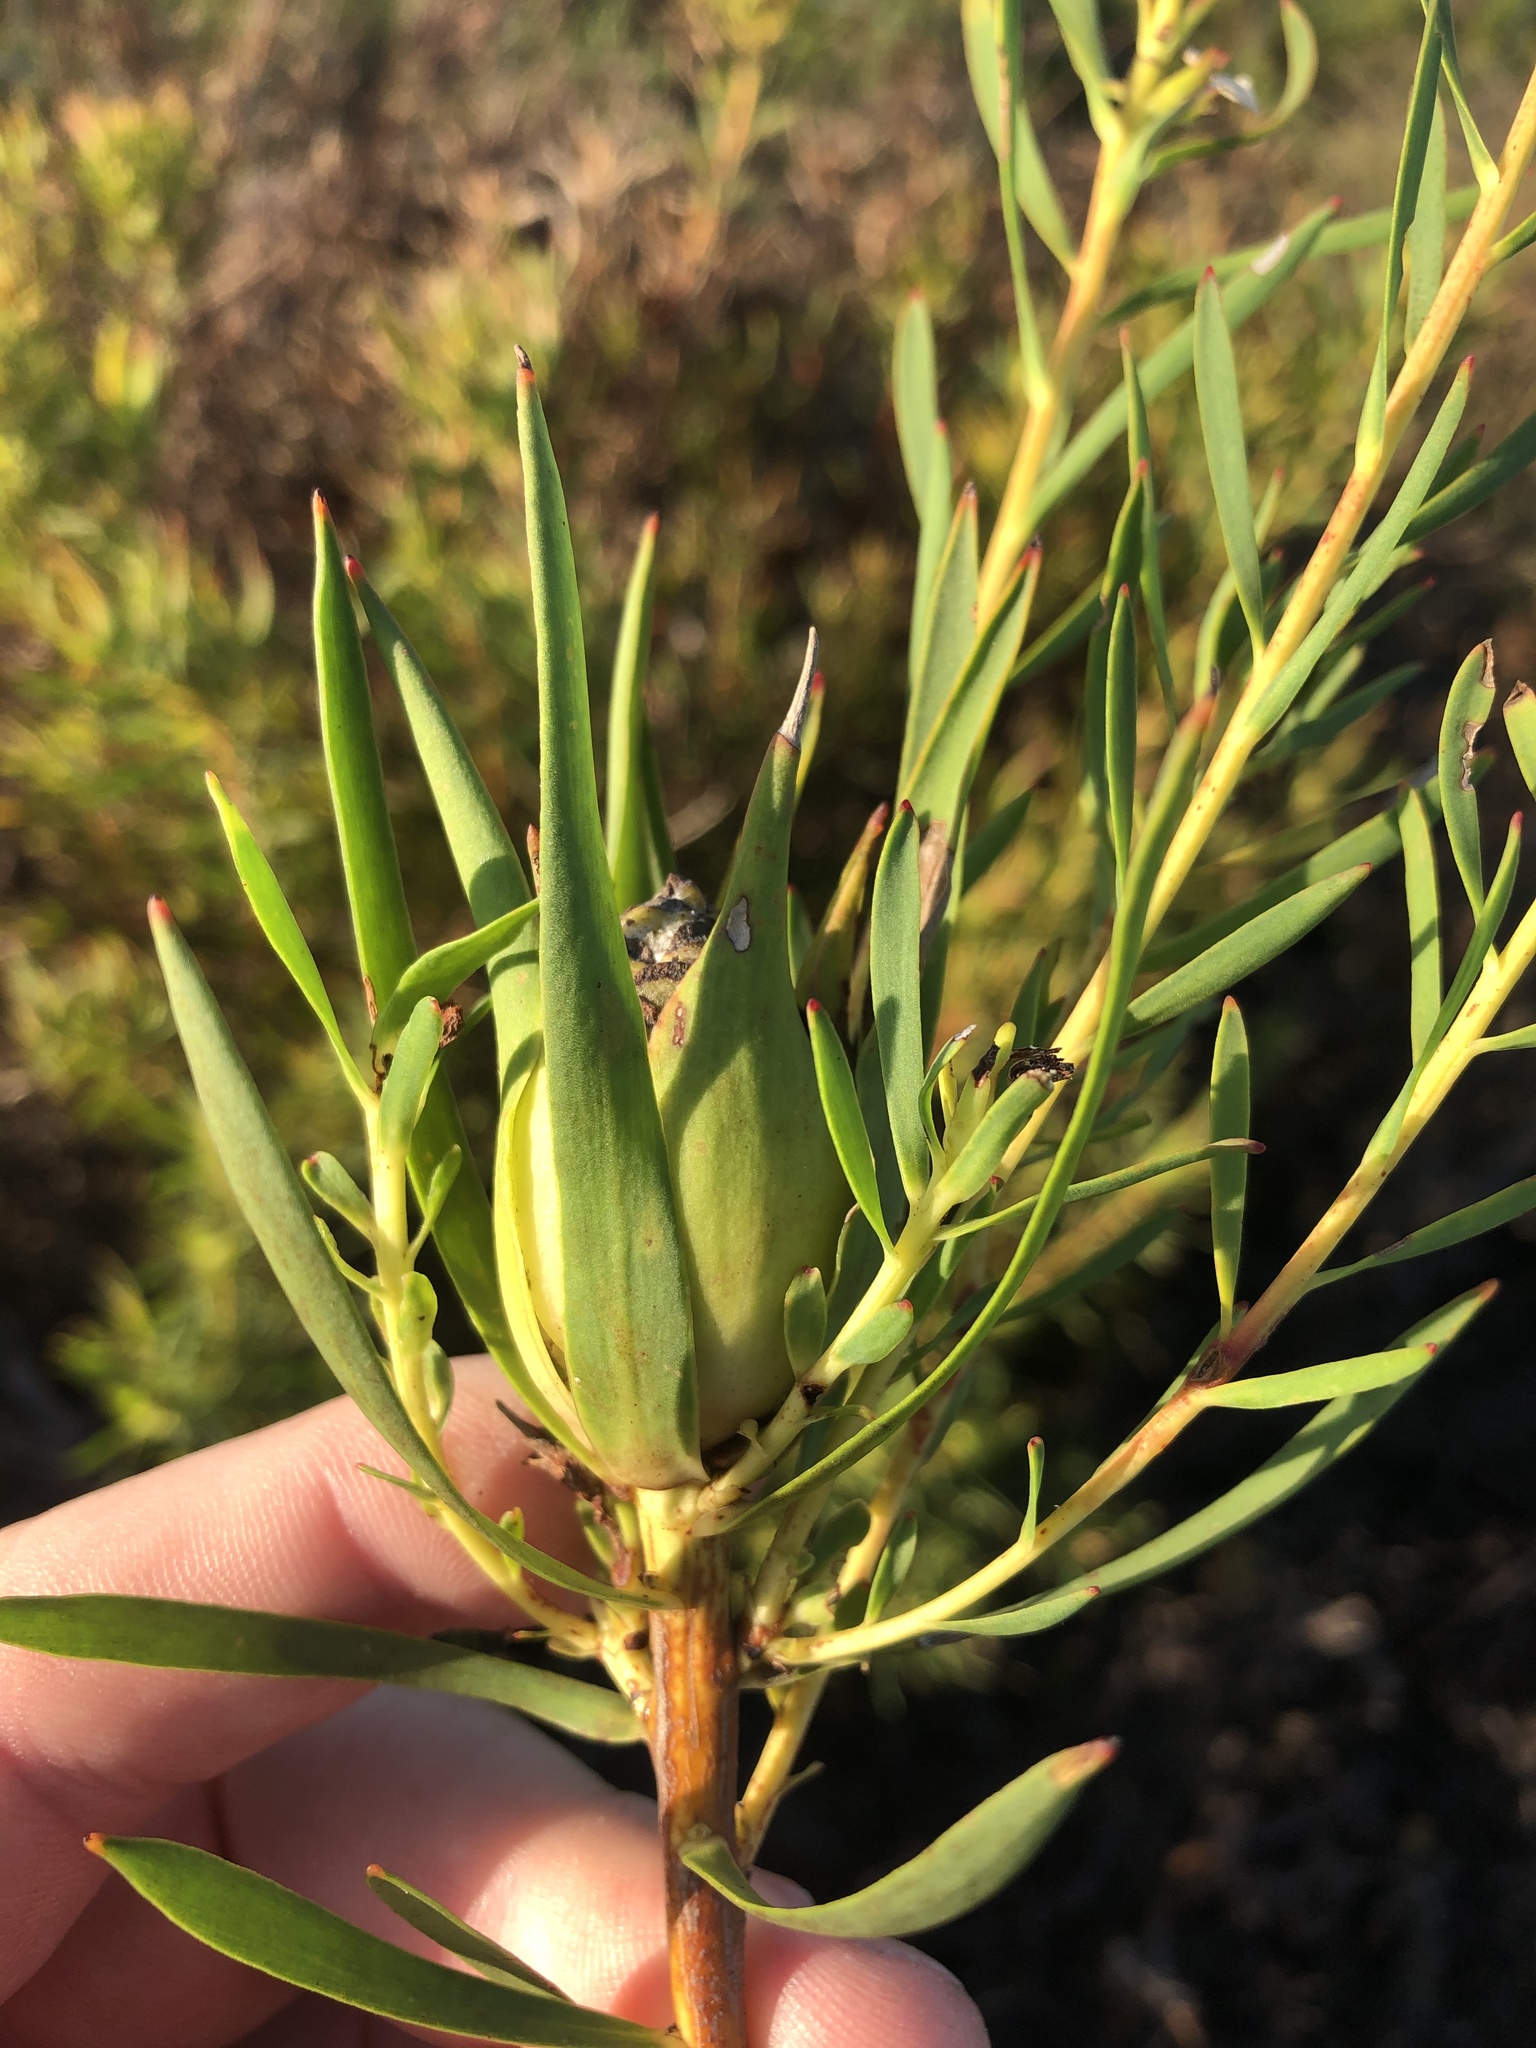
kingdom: Plantae
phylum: Tracheophyta
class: Magnoliopsida
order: Proteales
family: Proteaceae
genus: Leucadendron
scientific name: Leucadendron salignum
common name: Common sunshine conebush
